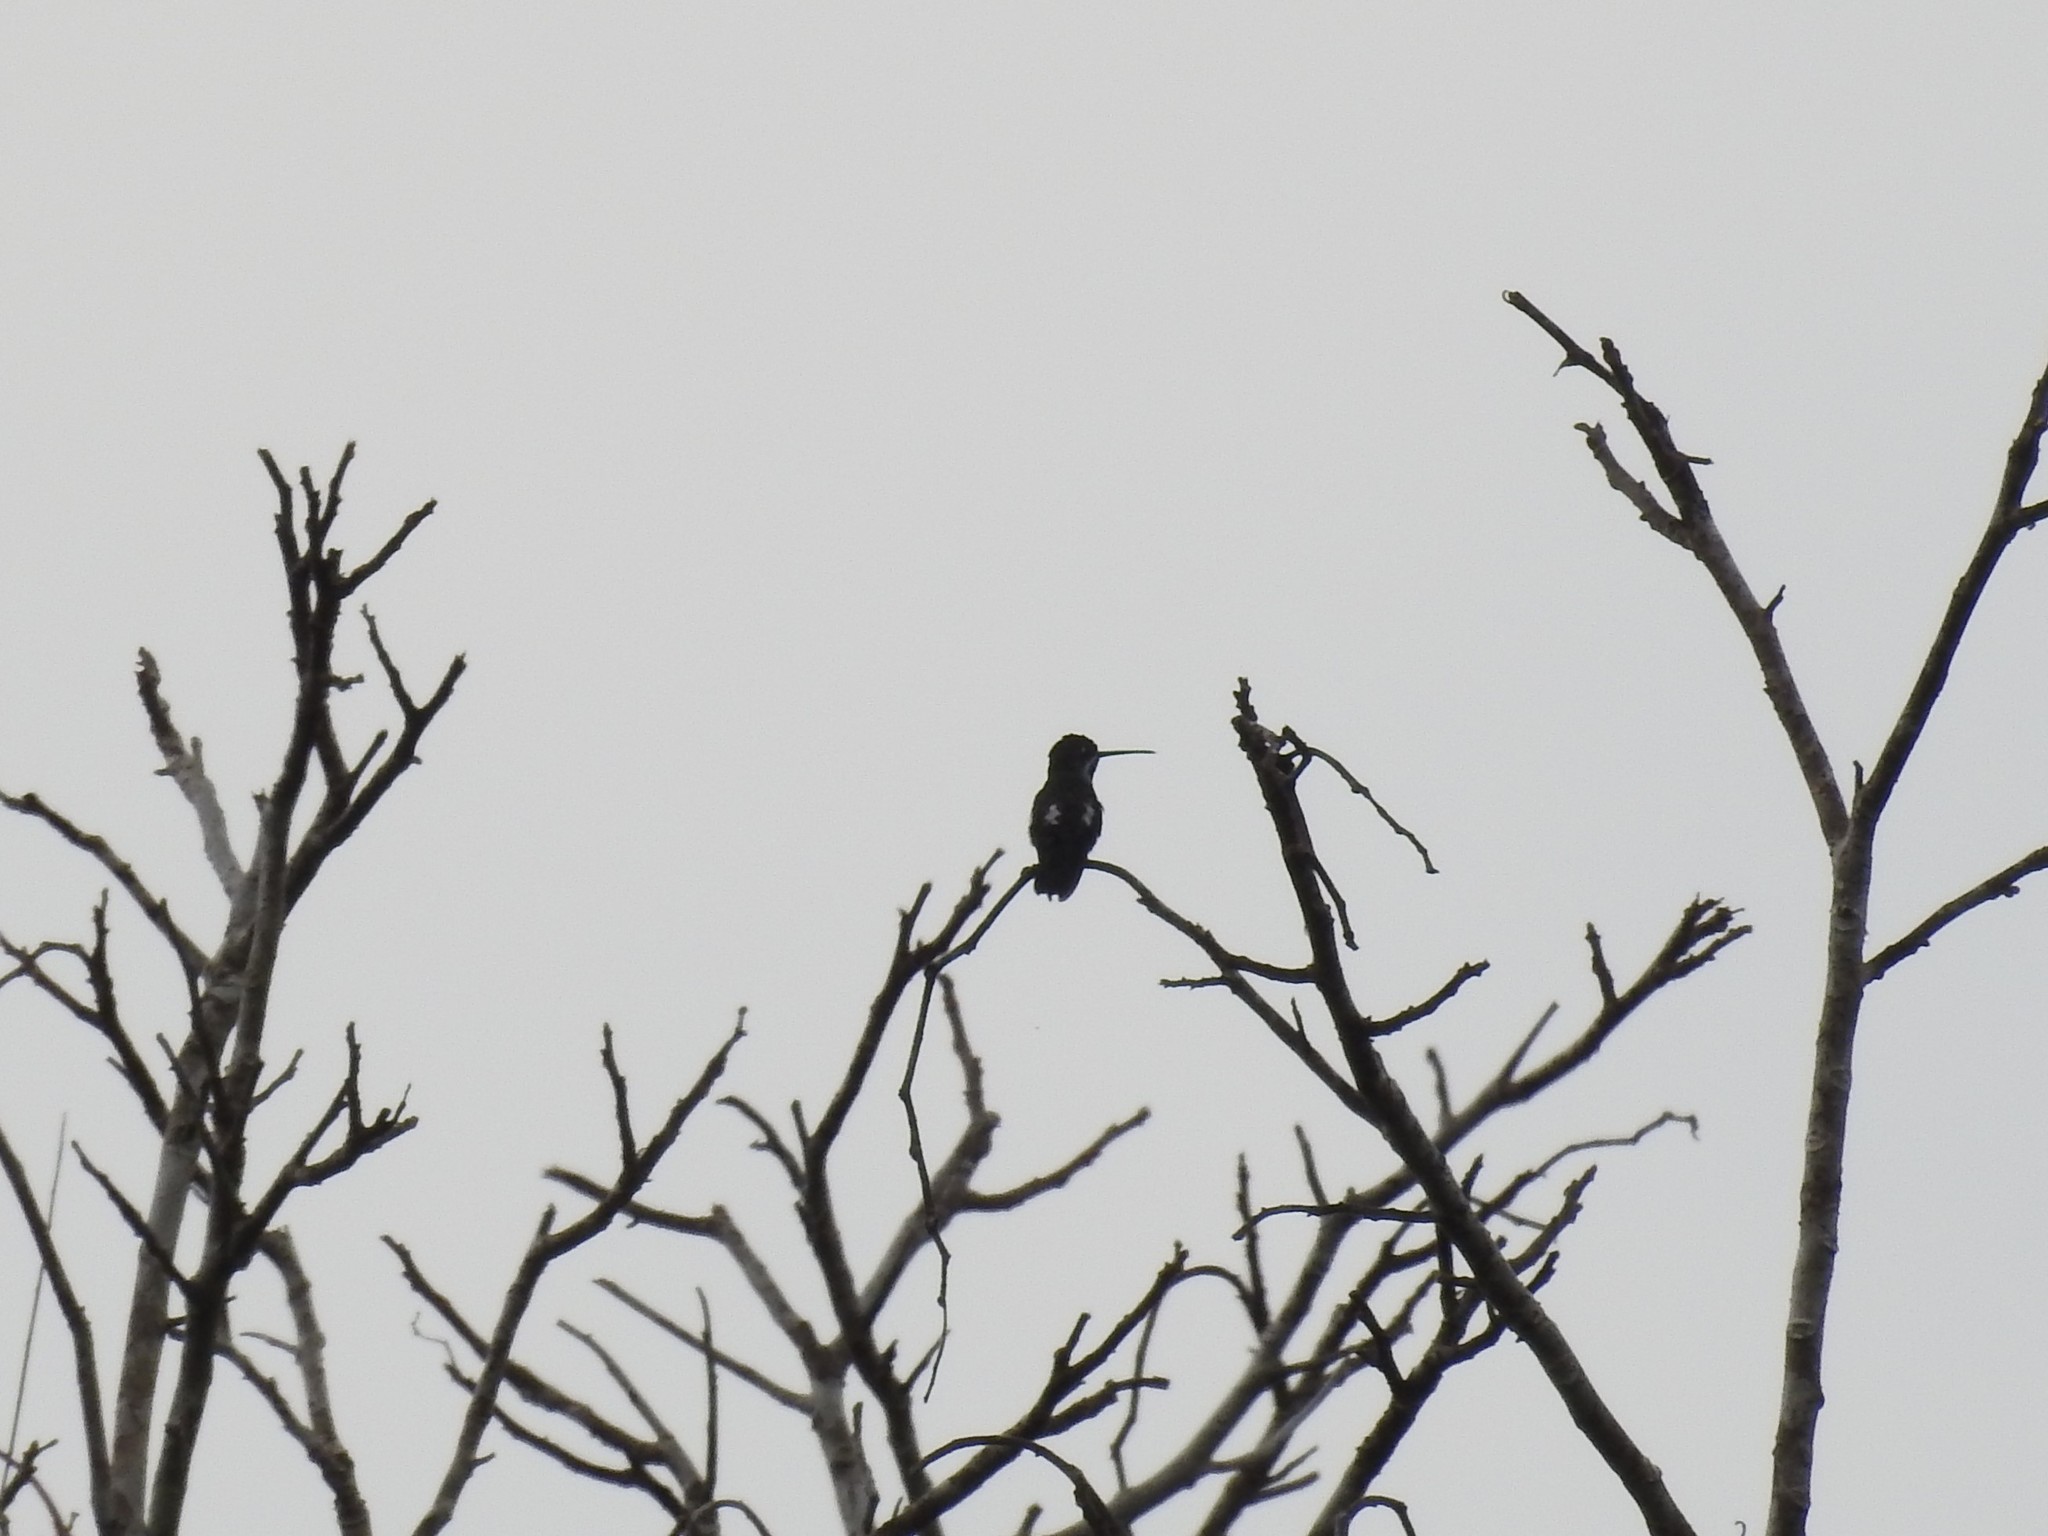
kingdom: Animalia
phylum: Chordata
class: Aves
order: Apodiformes
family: Trochilidae
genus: Heliomaster
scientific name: Heliomaster longirostris
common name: Long-billed starthroat
